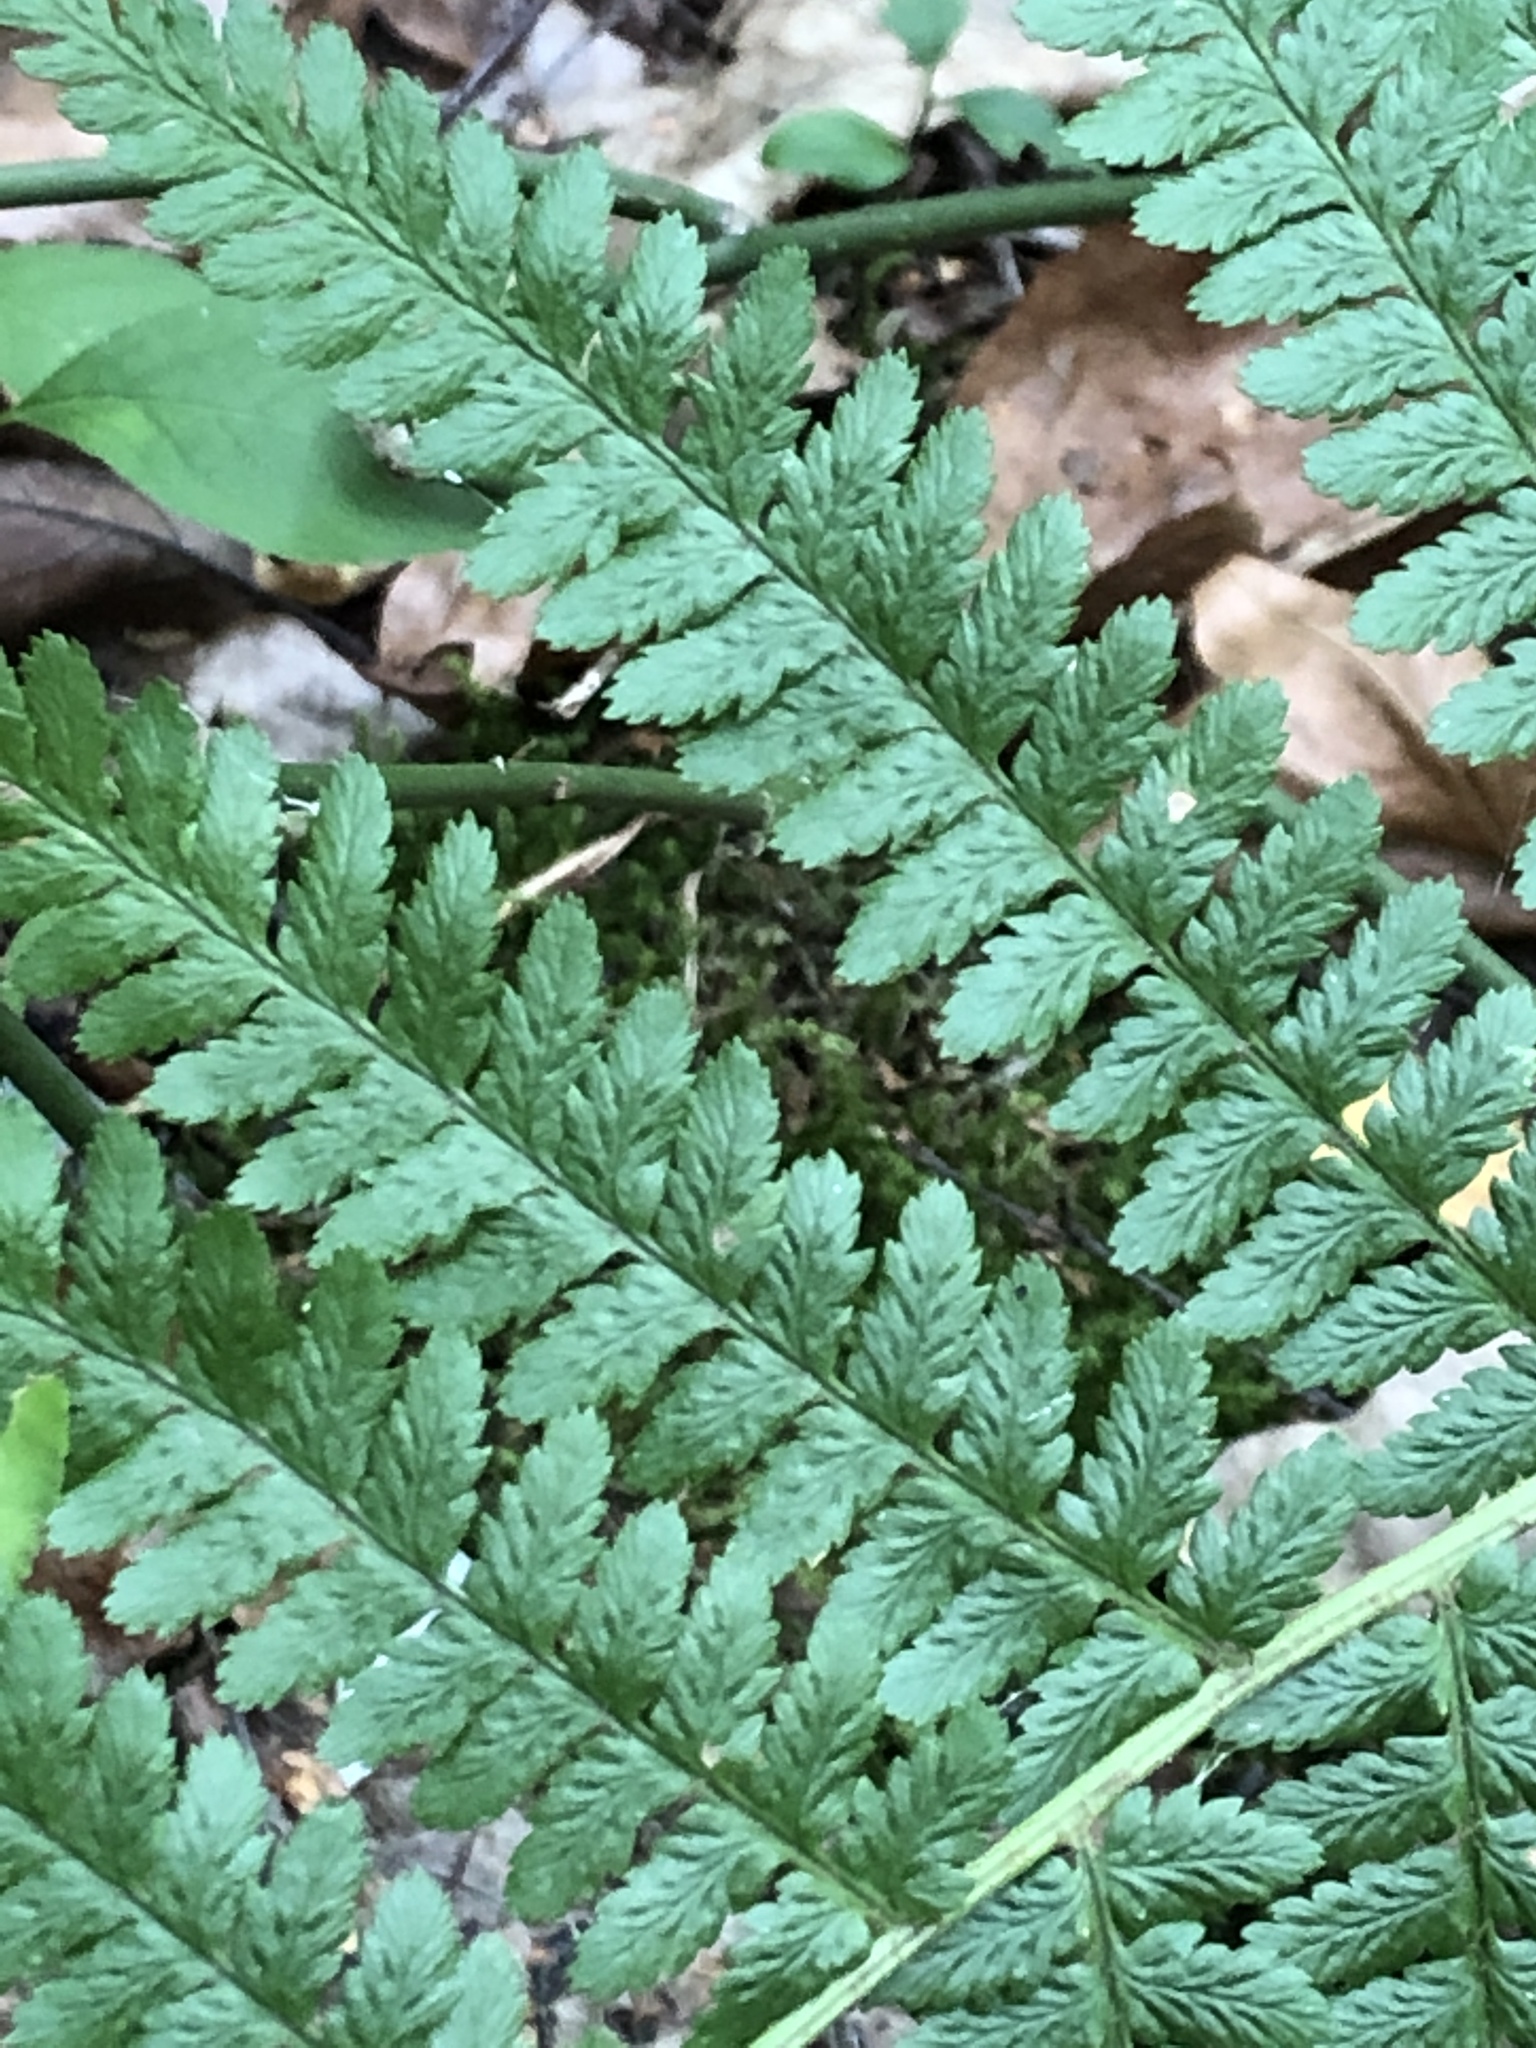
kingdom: Plantae
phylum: Tracheophyta
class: Polypodiopsida
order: Polypodiales
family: Athyriaceae
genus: Athyrium
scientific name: Athyrium filix-femina
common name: Lady fern
